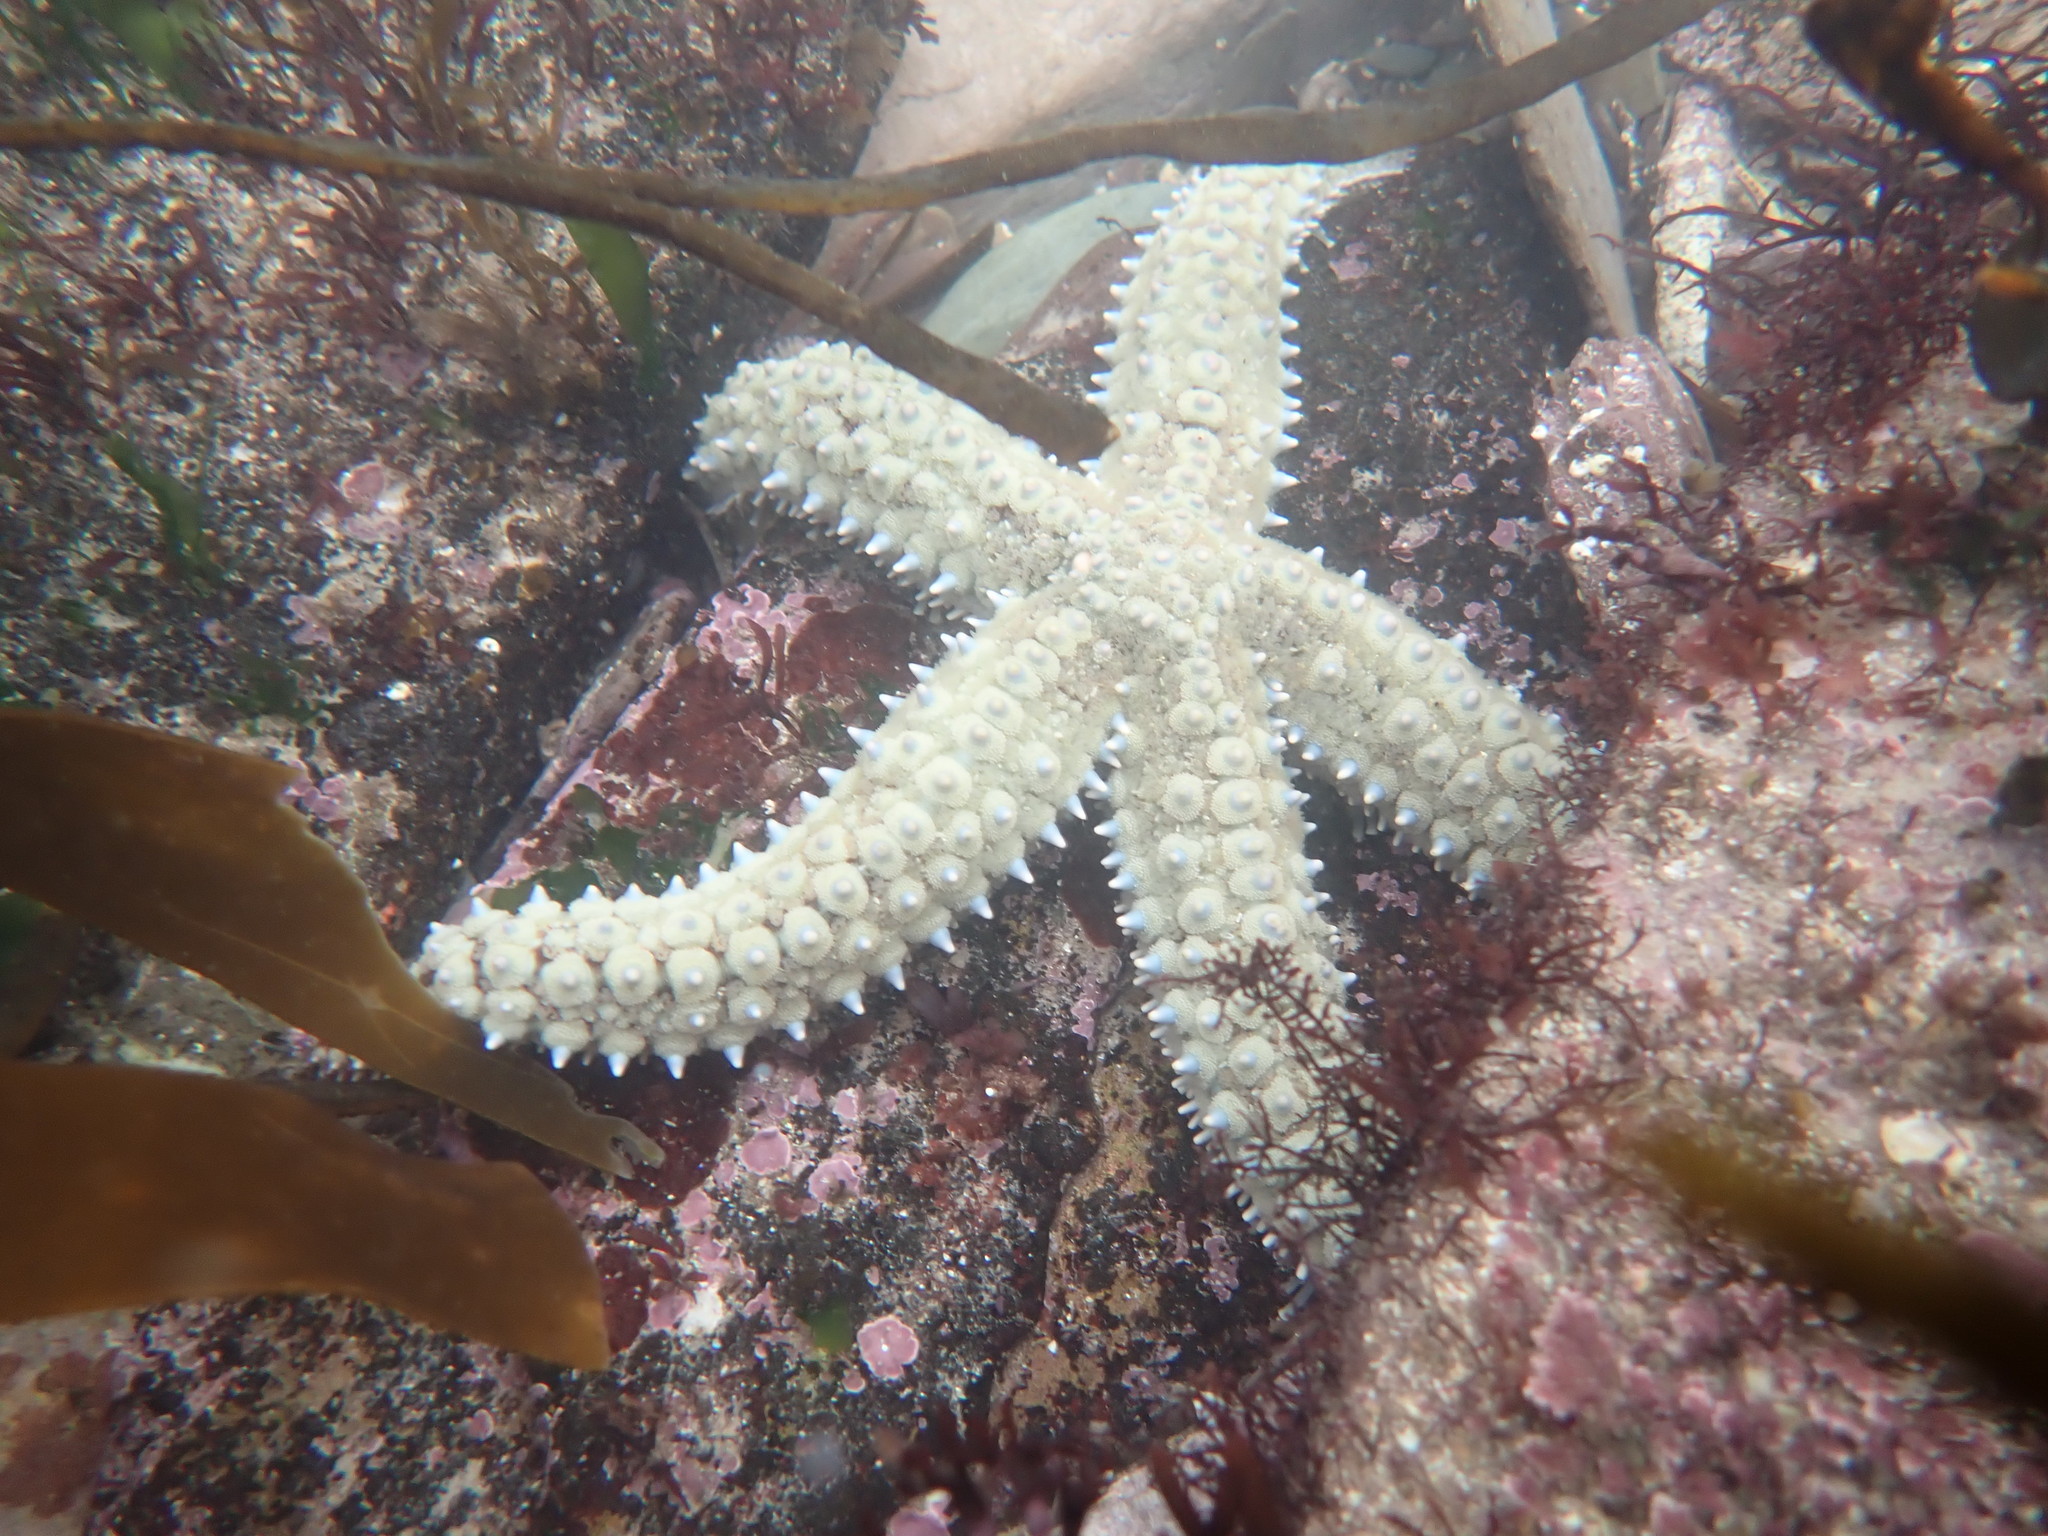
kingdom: Animalia
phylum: Echinodermata
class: Asteroidea
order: Forcipulatida
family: Asteriidae
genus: Marthasterias
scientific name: Marthasterias glacialis
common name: Spiny starfish
